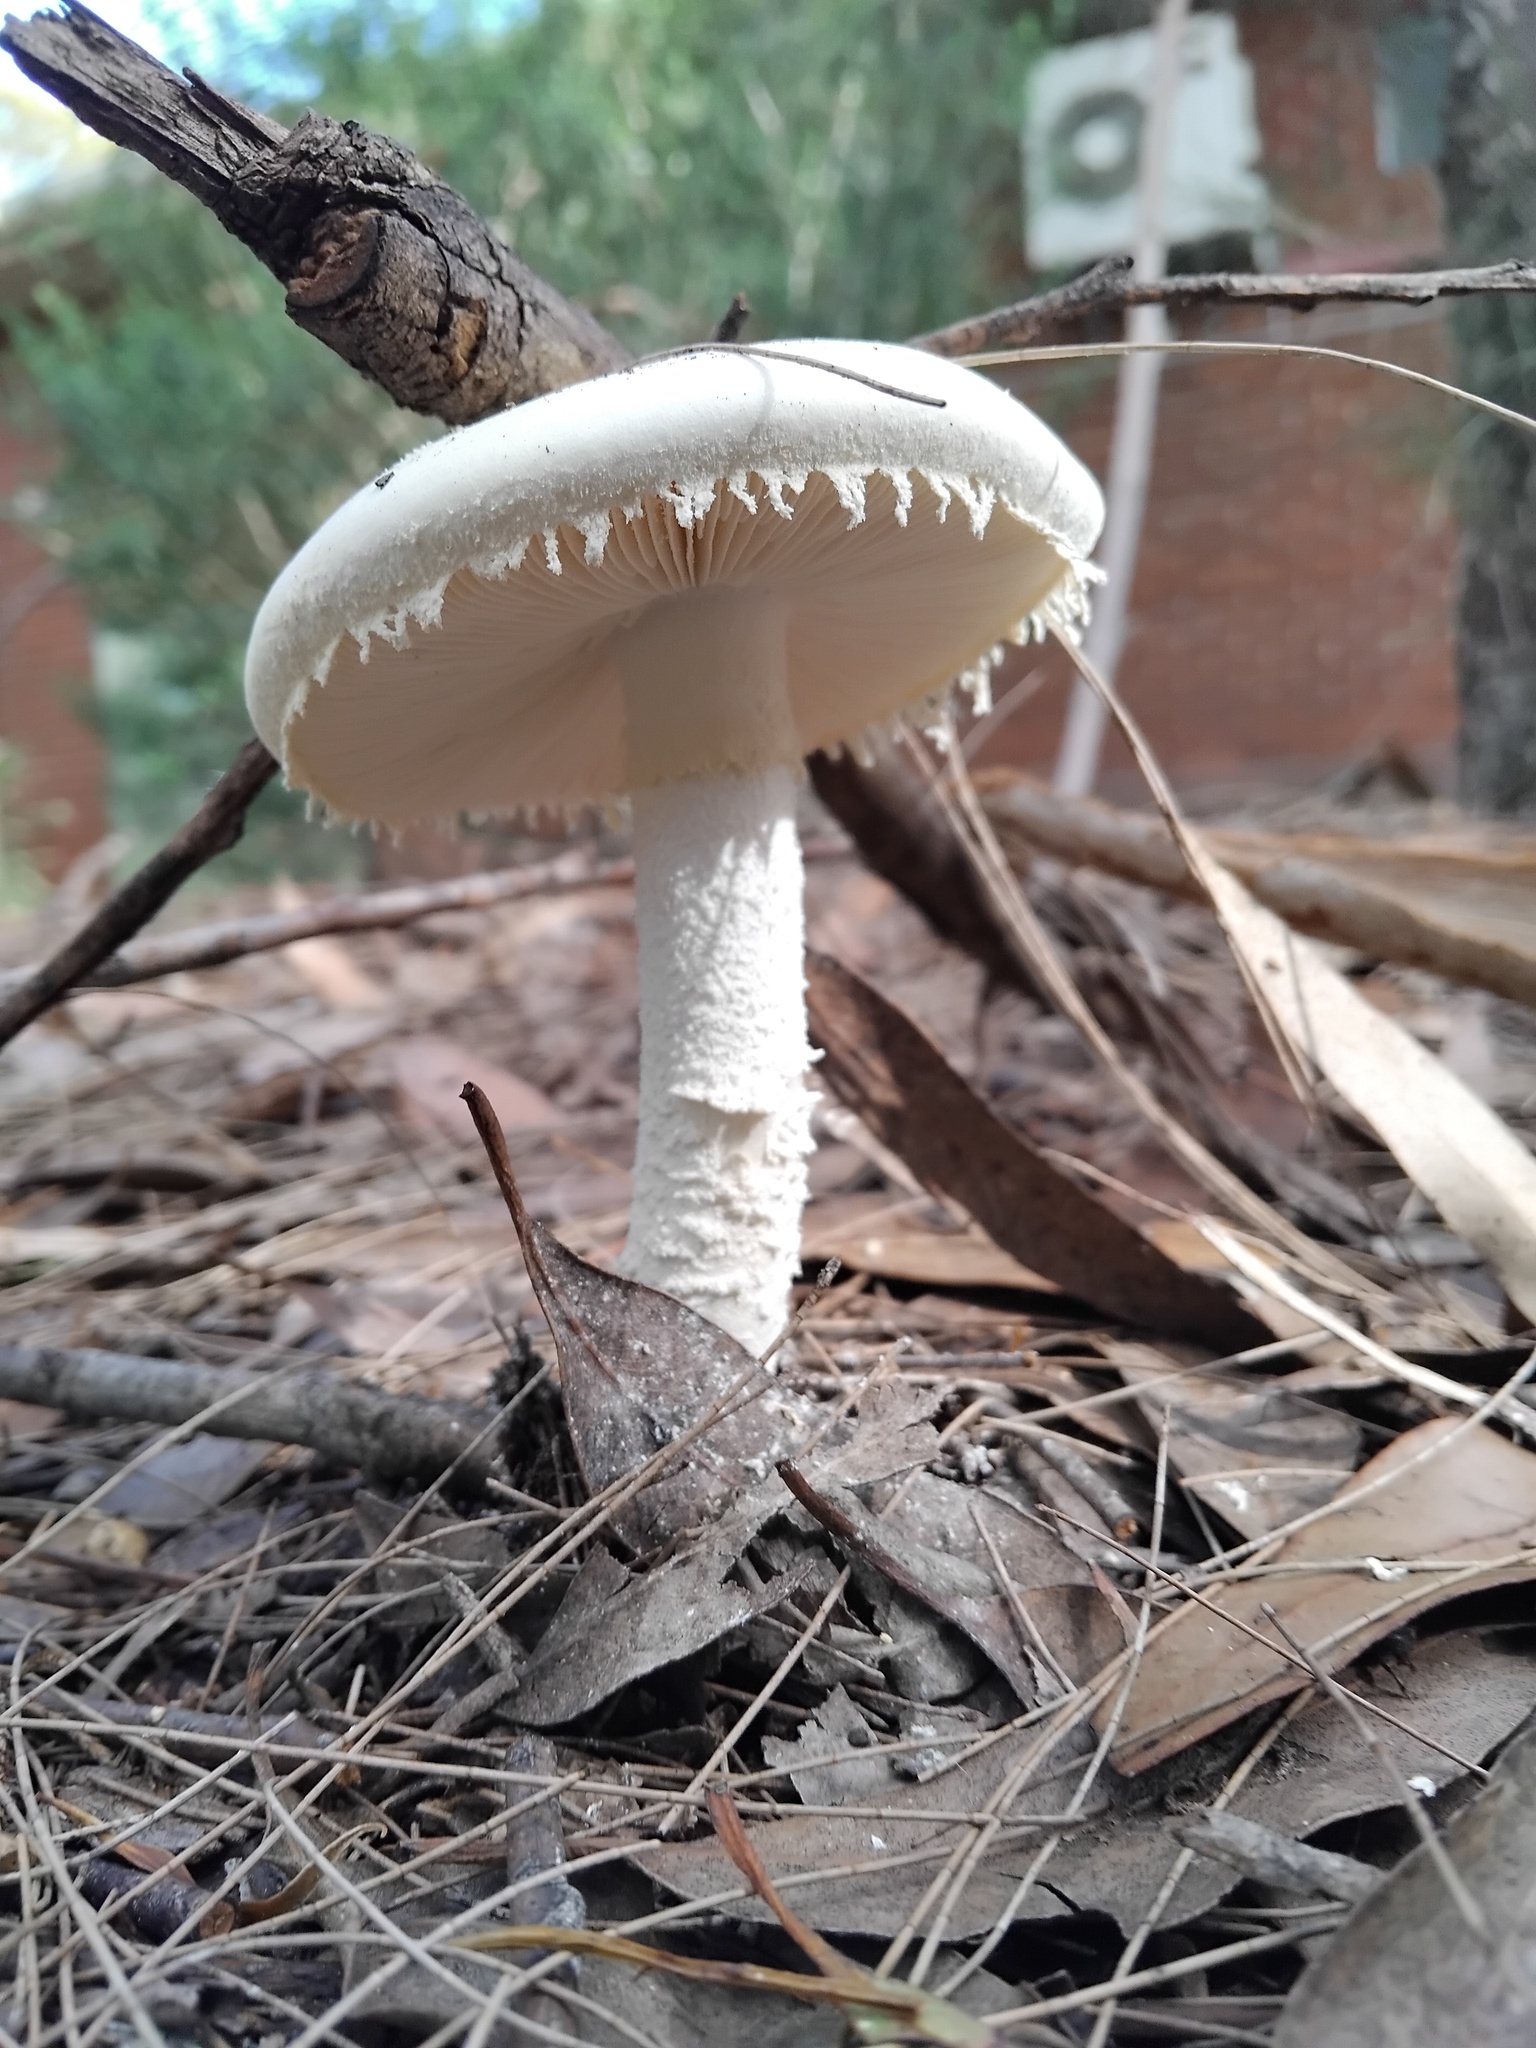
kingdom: Fungi
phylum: Basidiomycota
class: Agaricomycetes
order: Agaricales
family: Amanitaceae
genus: Amanita
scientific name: Amanita farinacea
